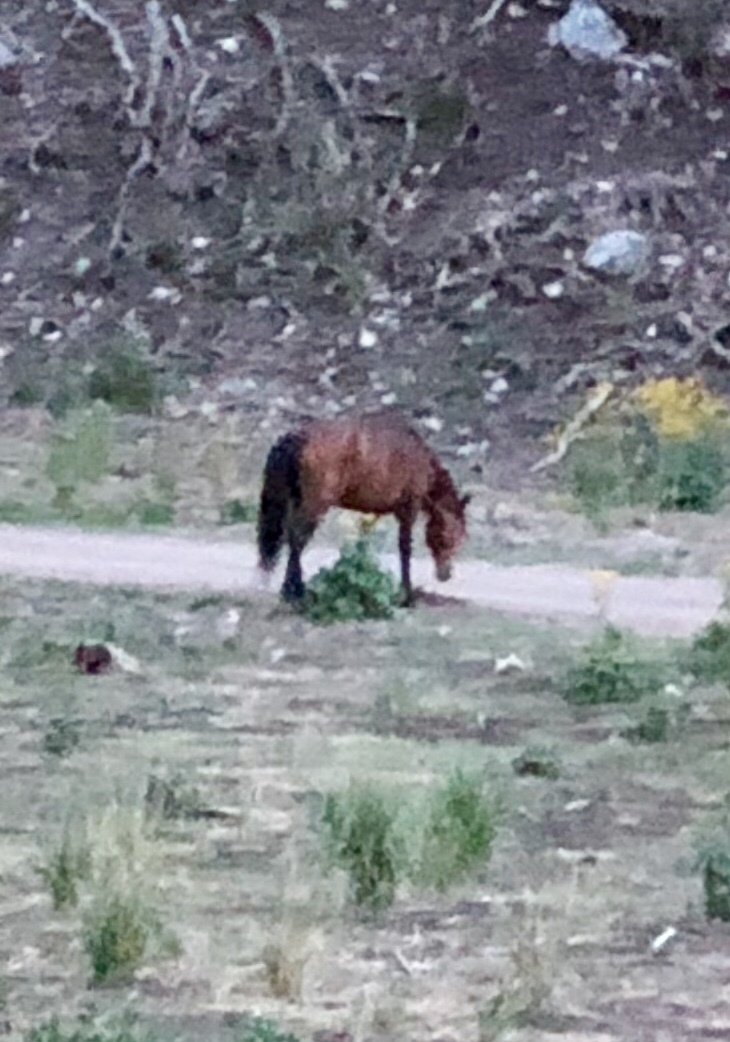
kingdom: Animalia
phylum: Chordata
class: Mammalia
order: Perissodactyla
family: Equidae
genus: Equus
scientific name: Equus caballus
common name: Horse
